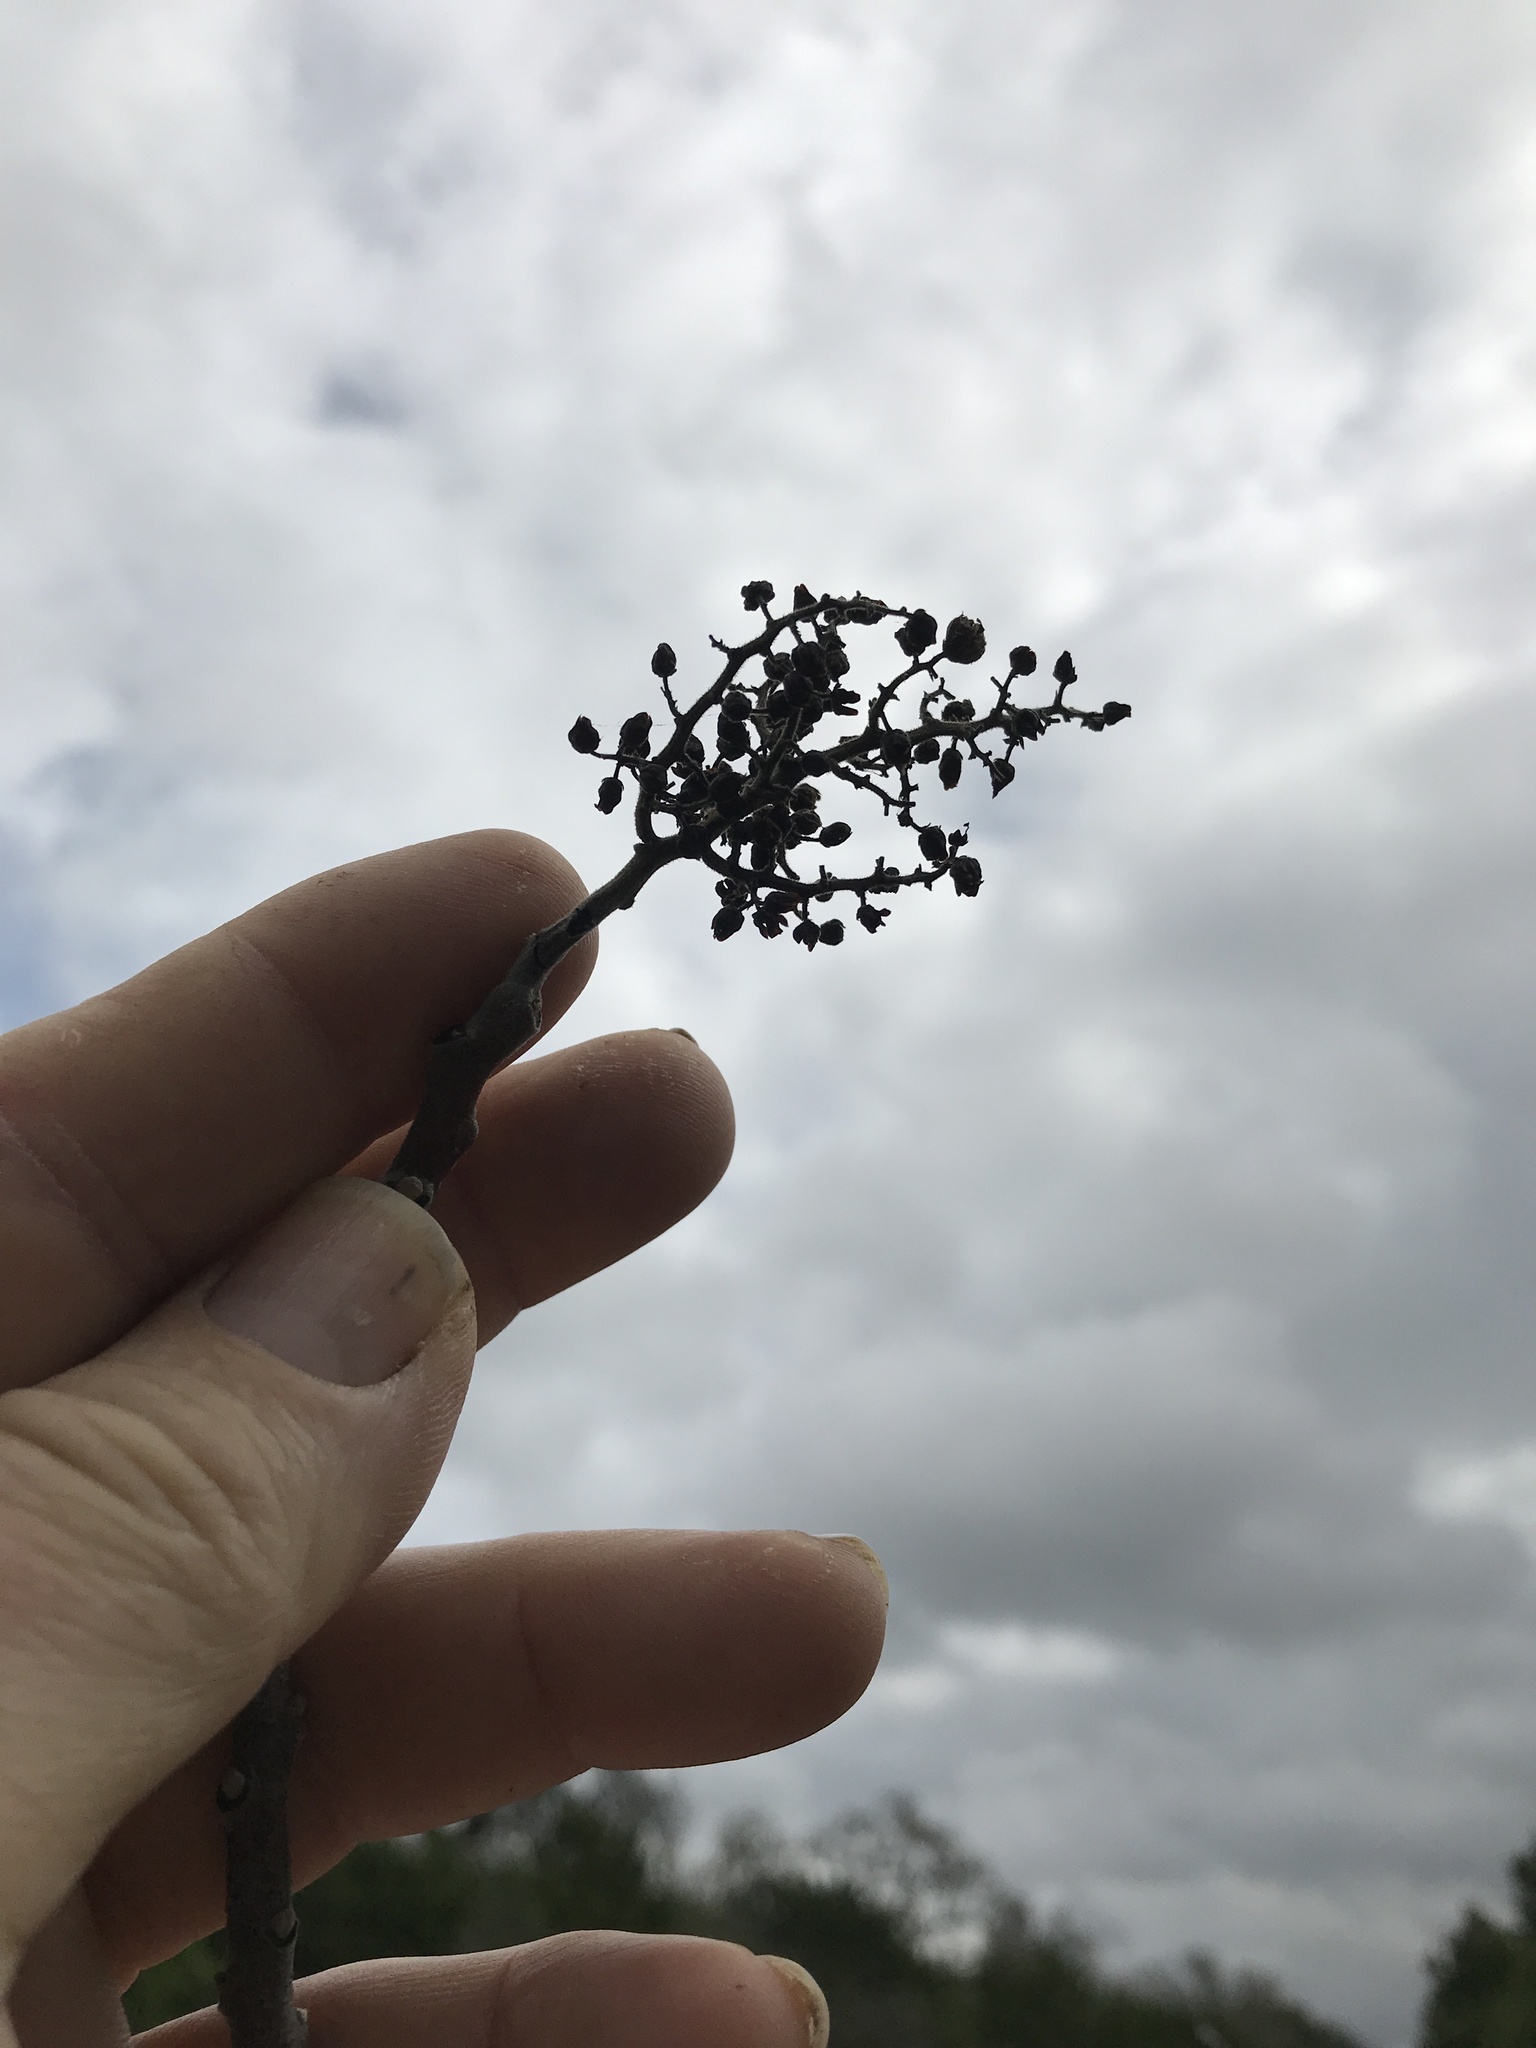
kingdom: Plantae
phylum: Tracheophyta
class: Magnoliopsida
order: Sapindales
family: Anacardiaceae
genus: Rhus
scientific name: Rhus lanceolata
